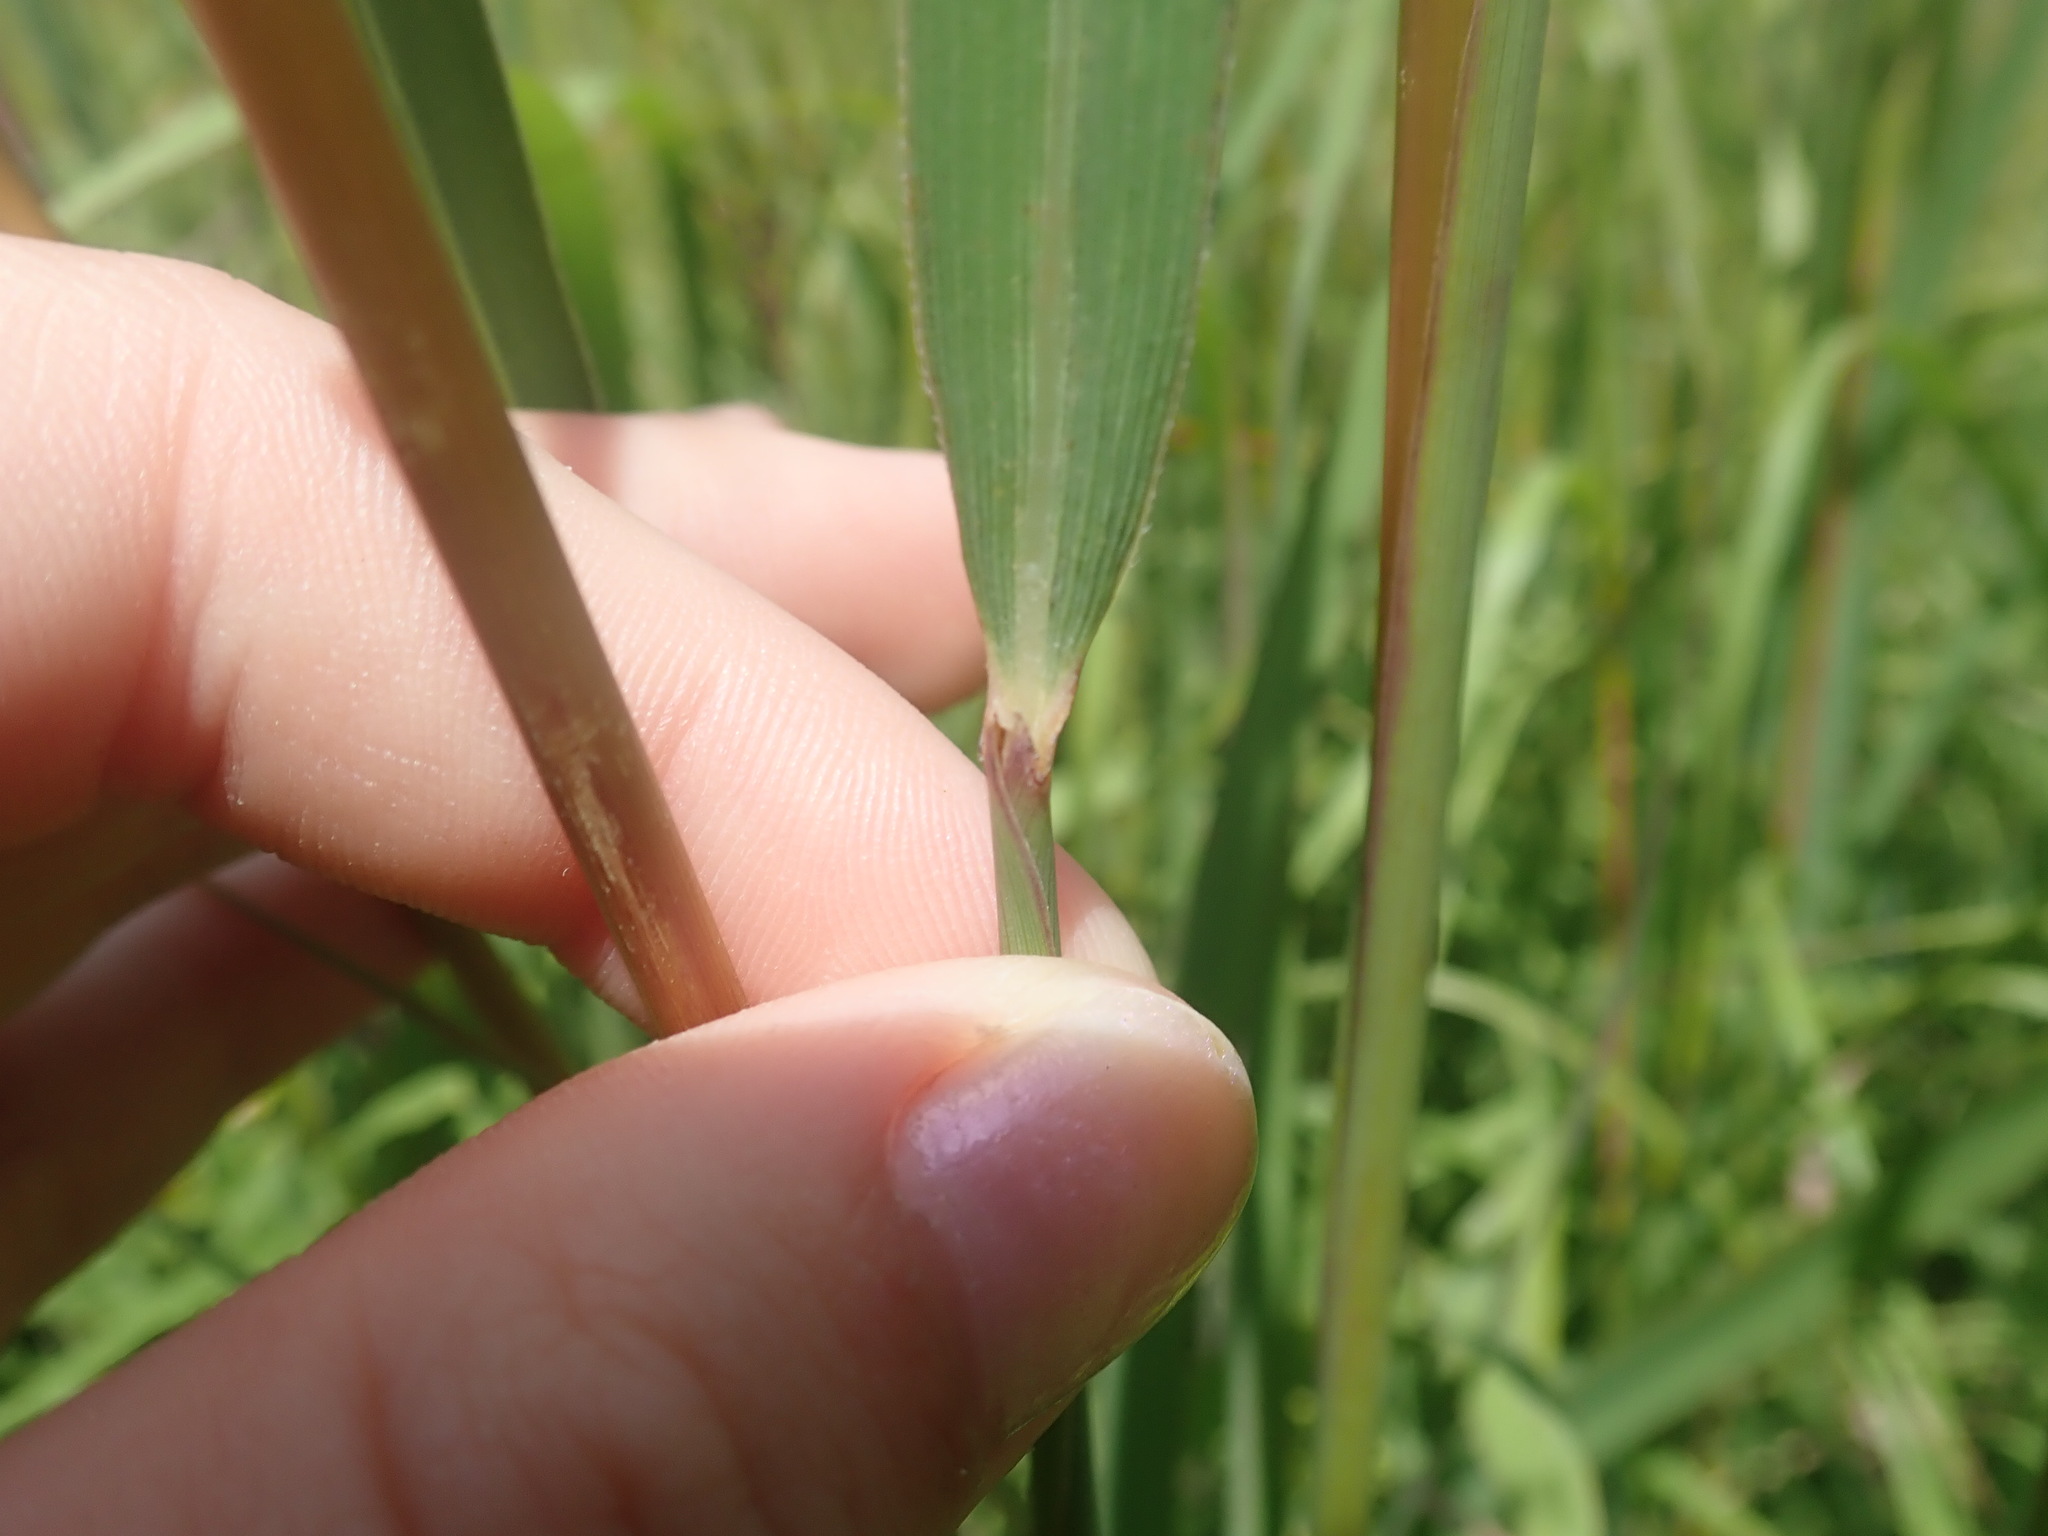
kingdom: Plantae
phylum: Tracheophyta
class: Liliopsida
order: Poales
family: Poaceae
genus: Sorghastrum
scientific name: Sorghastrum nutans
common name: Indian grass
